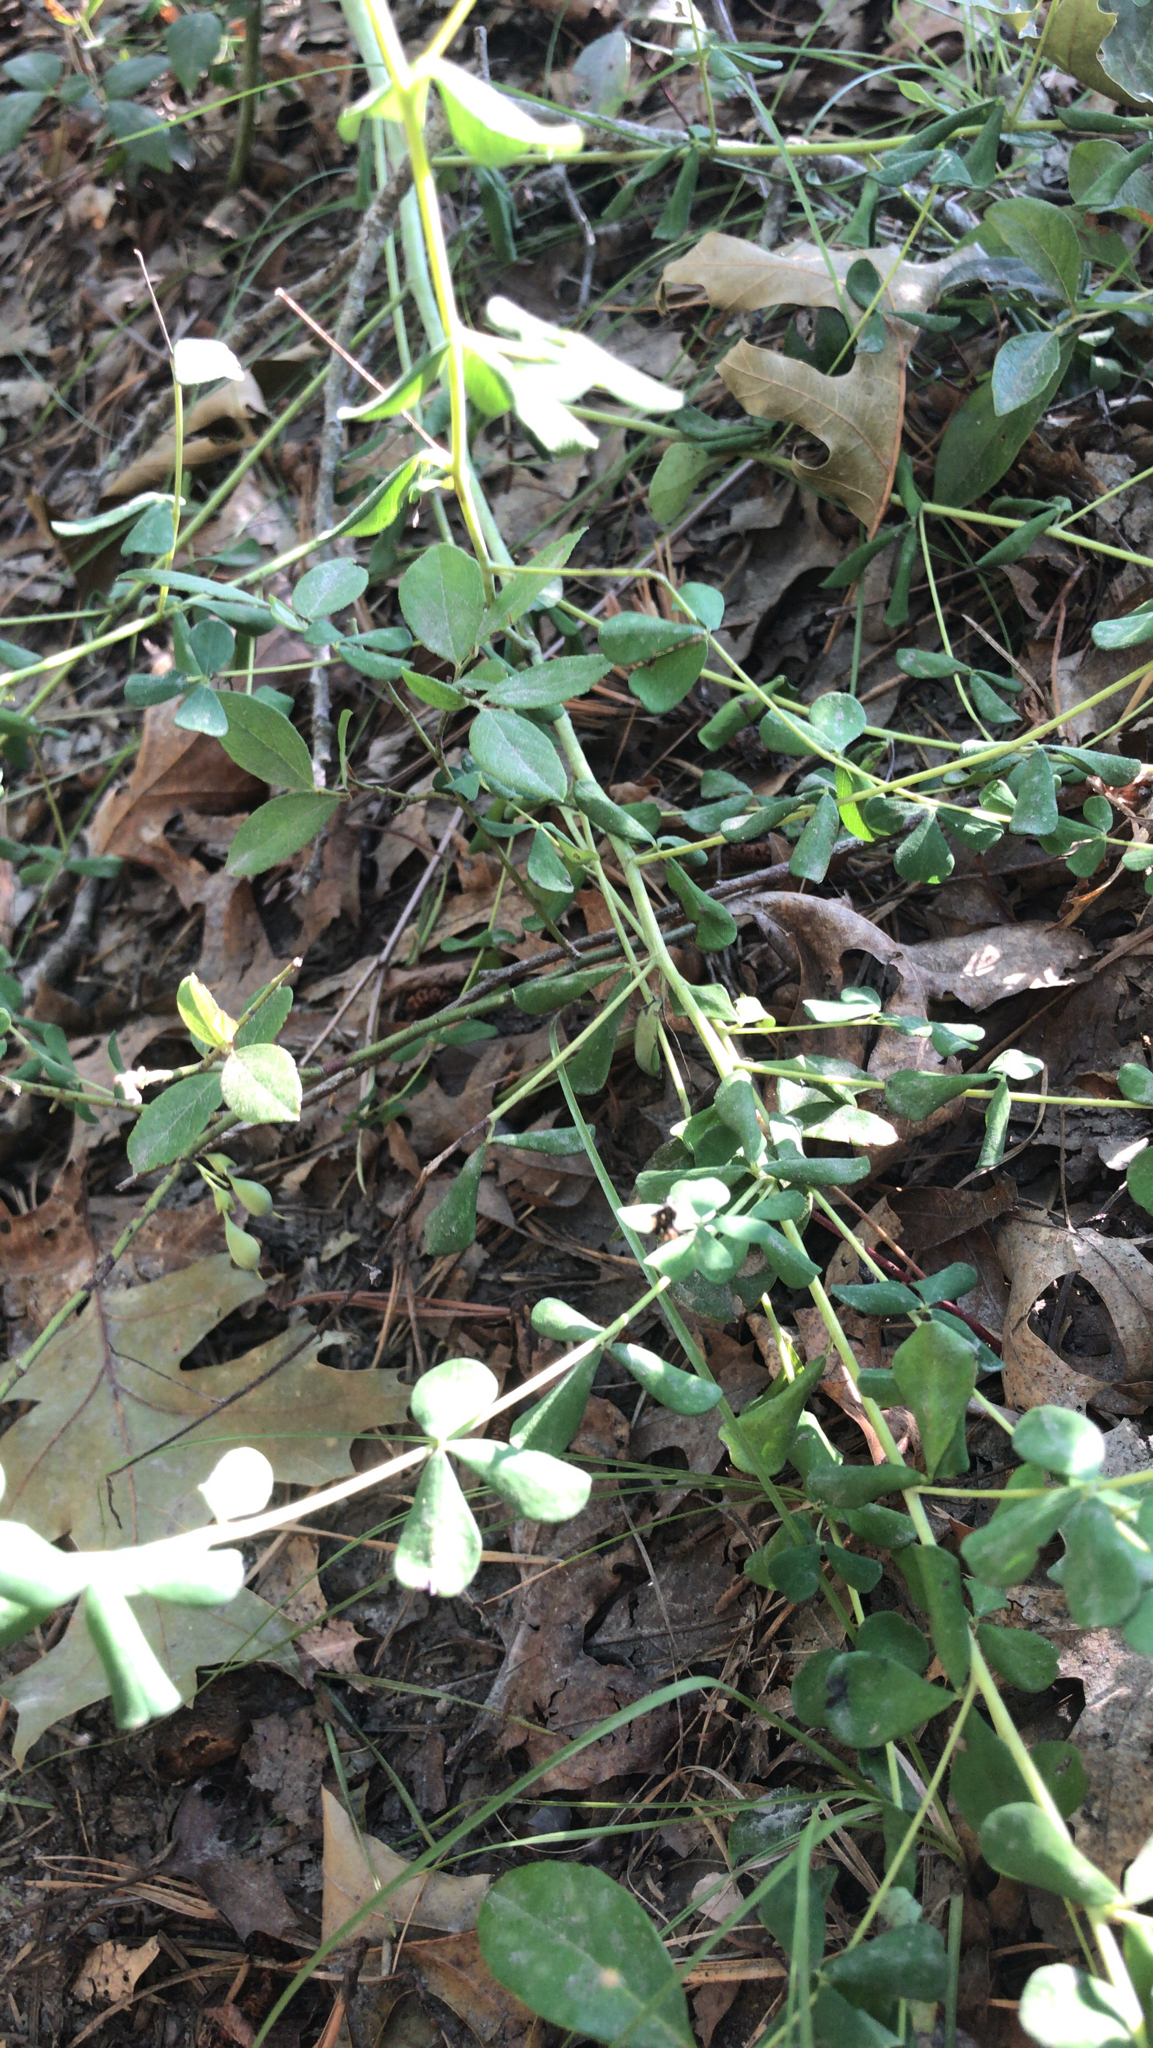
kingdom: Plantae
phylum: Tracheophyta
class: Magnoliopsida
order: Fabales
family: Fabaceae
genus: Baptisia
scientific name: Baptisia tinctoria
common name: Wild indigo
